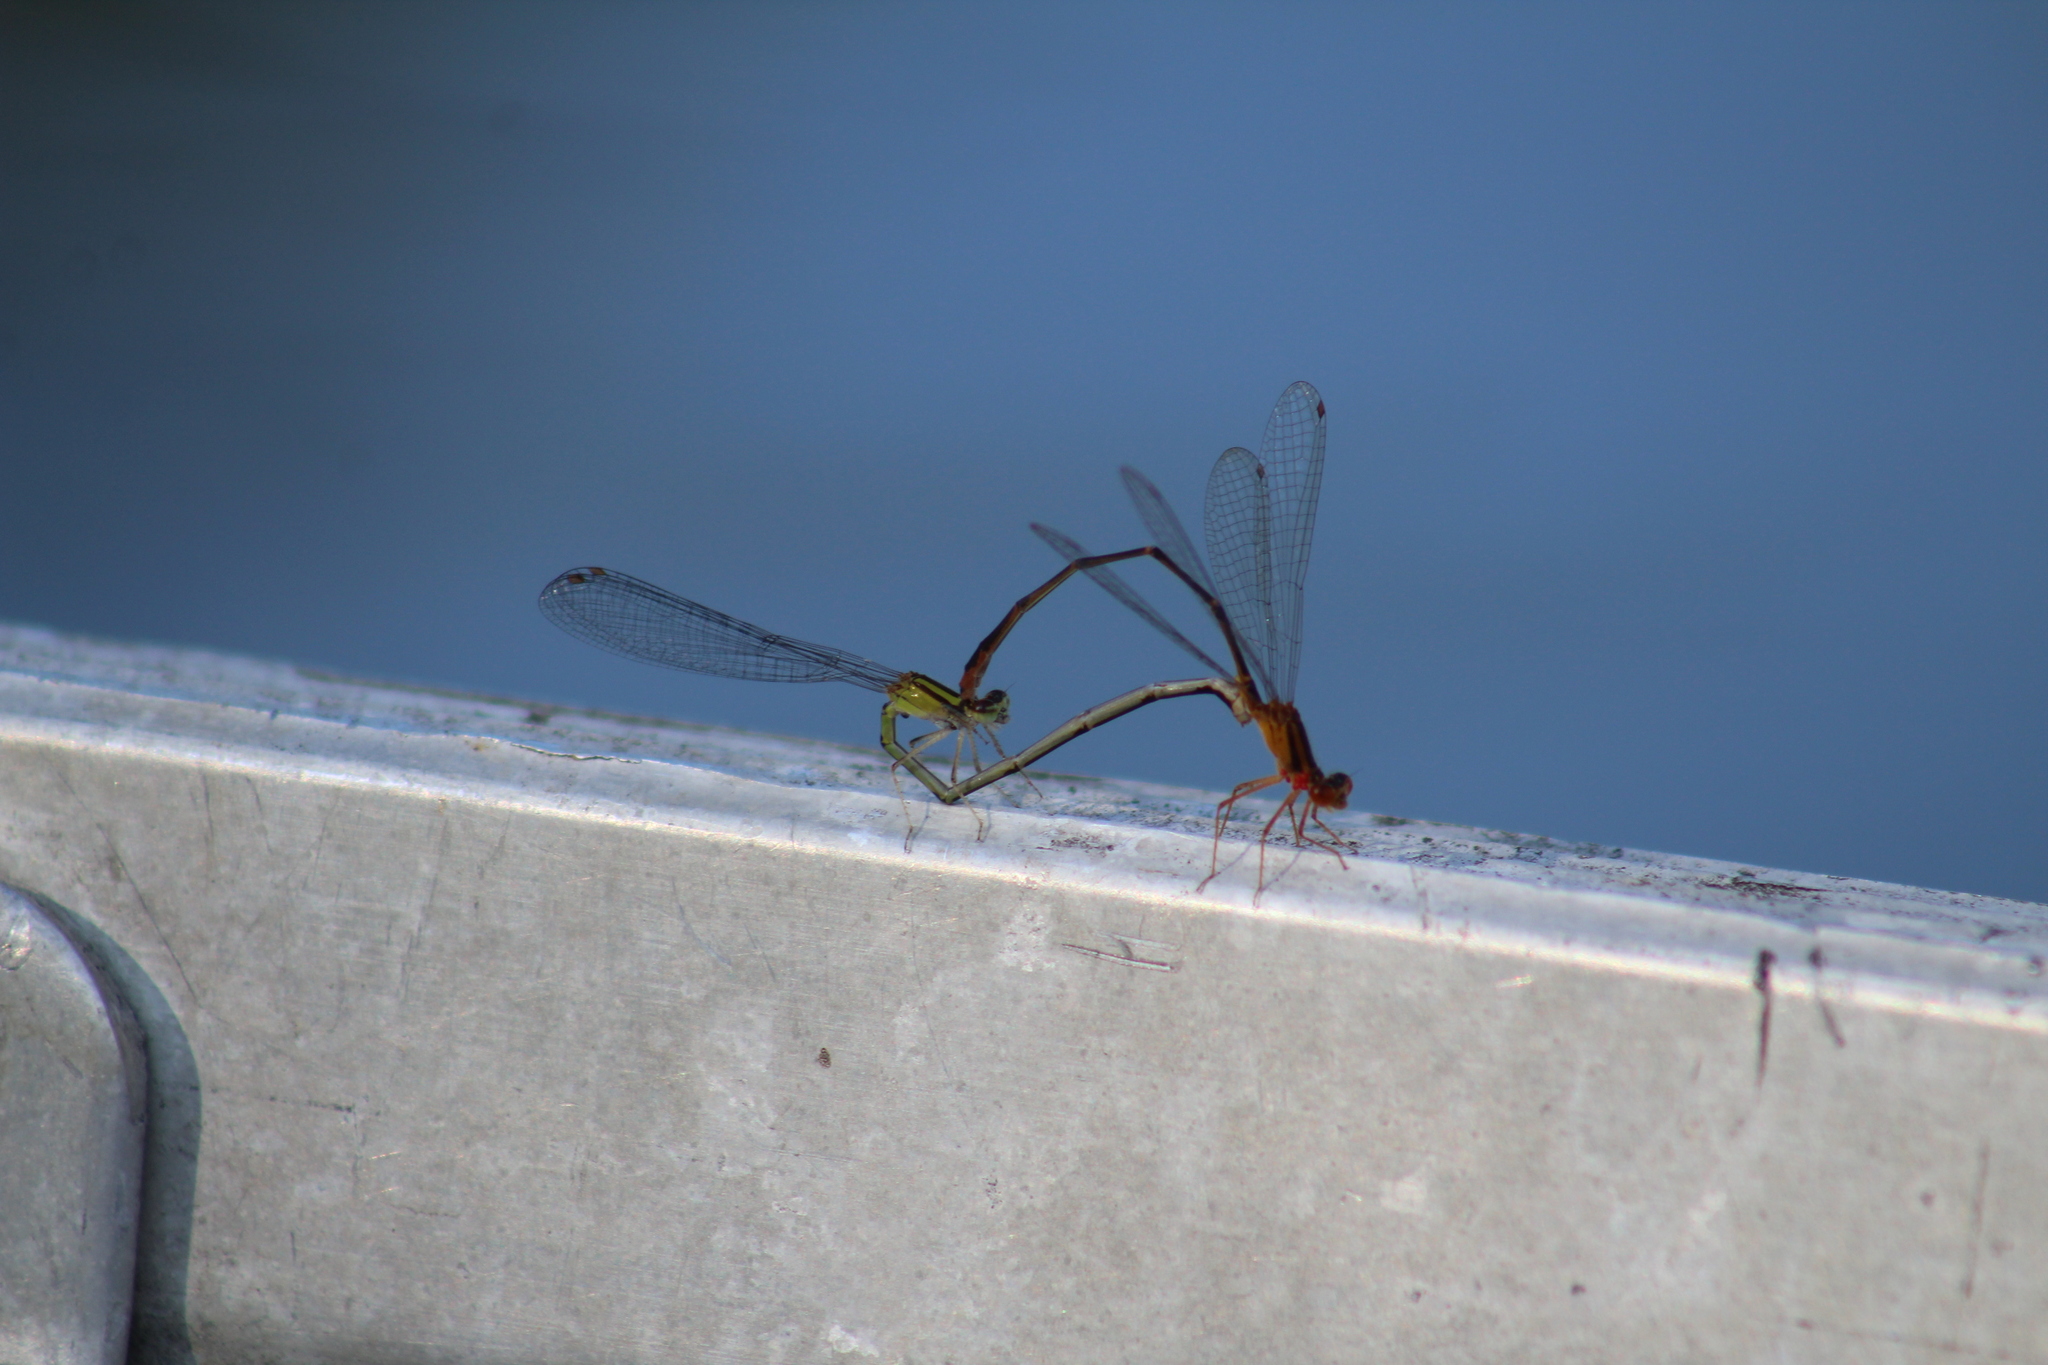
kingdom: Animalia
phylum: Arthropoda
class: Insecta
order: Odonata
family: Coenagrionidae
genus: Enallagma
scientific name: Enallagma signatum
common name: Orange bluet
